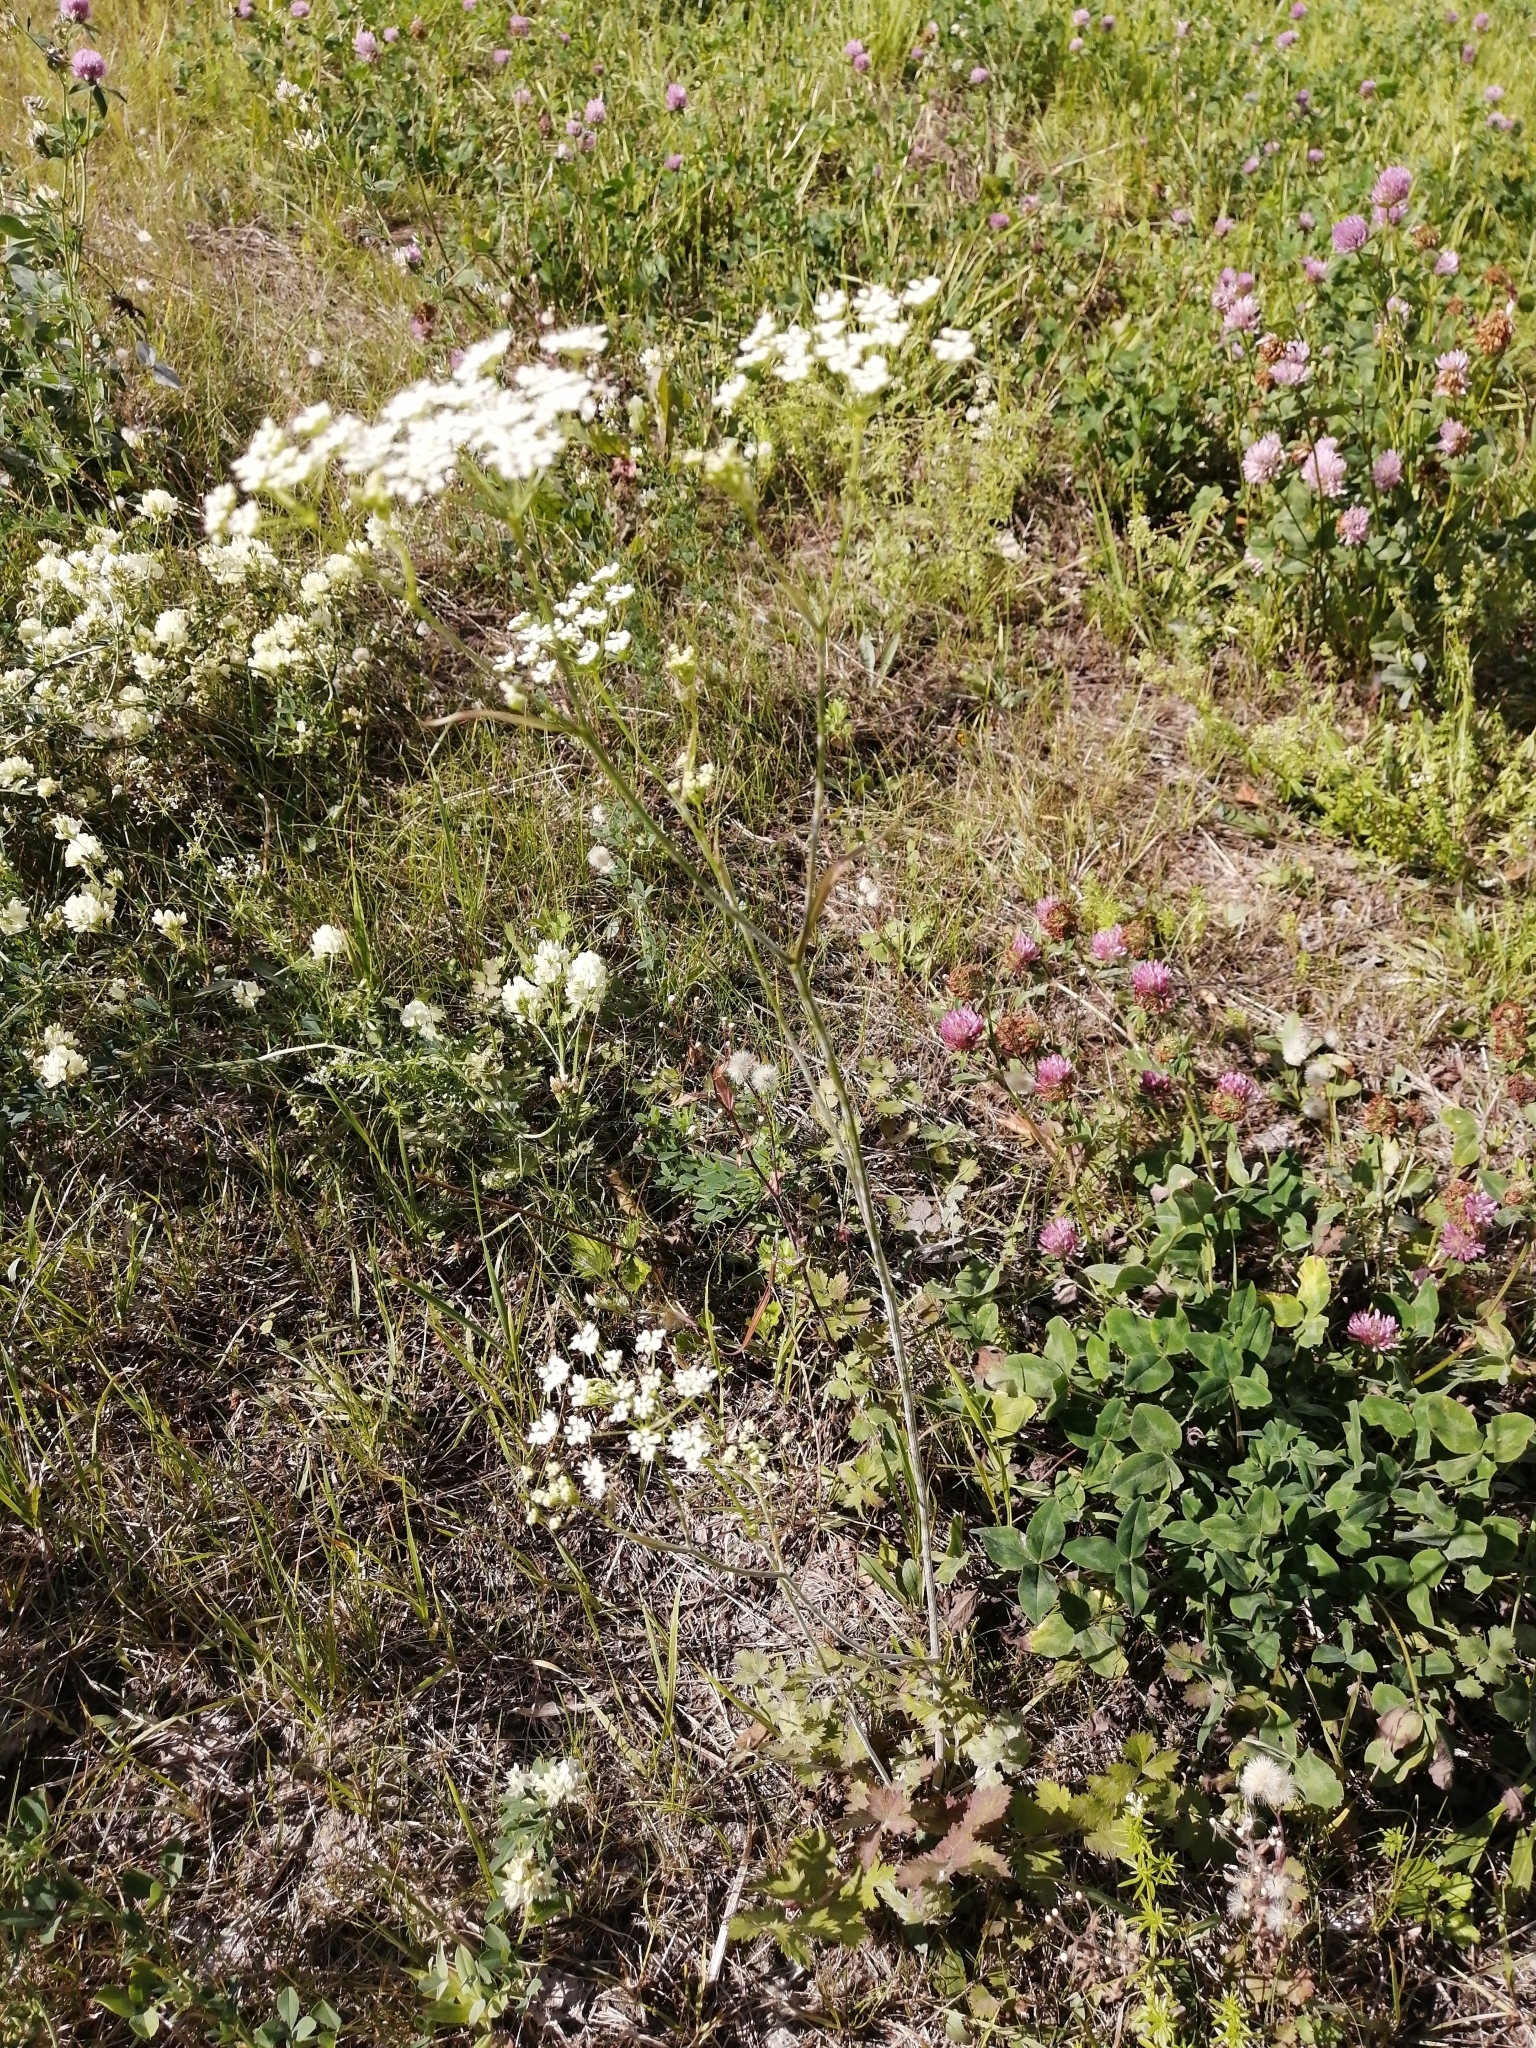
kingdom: Plantae
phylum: Tracheophyta
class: Magnoliopsida
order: Apiales
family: Apiaceae
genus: Pimpinella
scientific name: Pimpinella saxifraga
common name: Burnet-saxifrage
